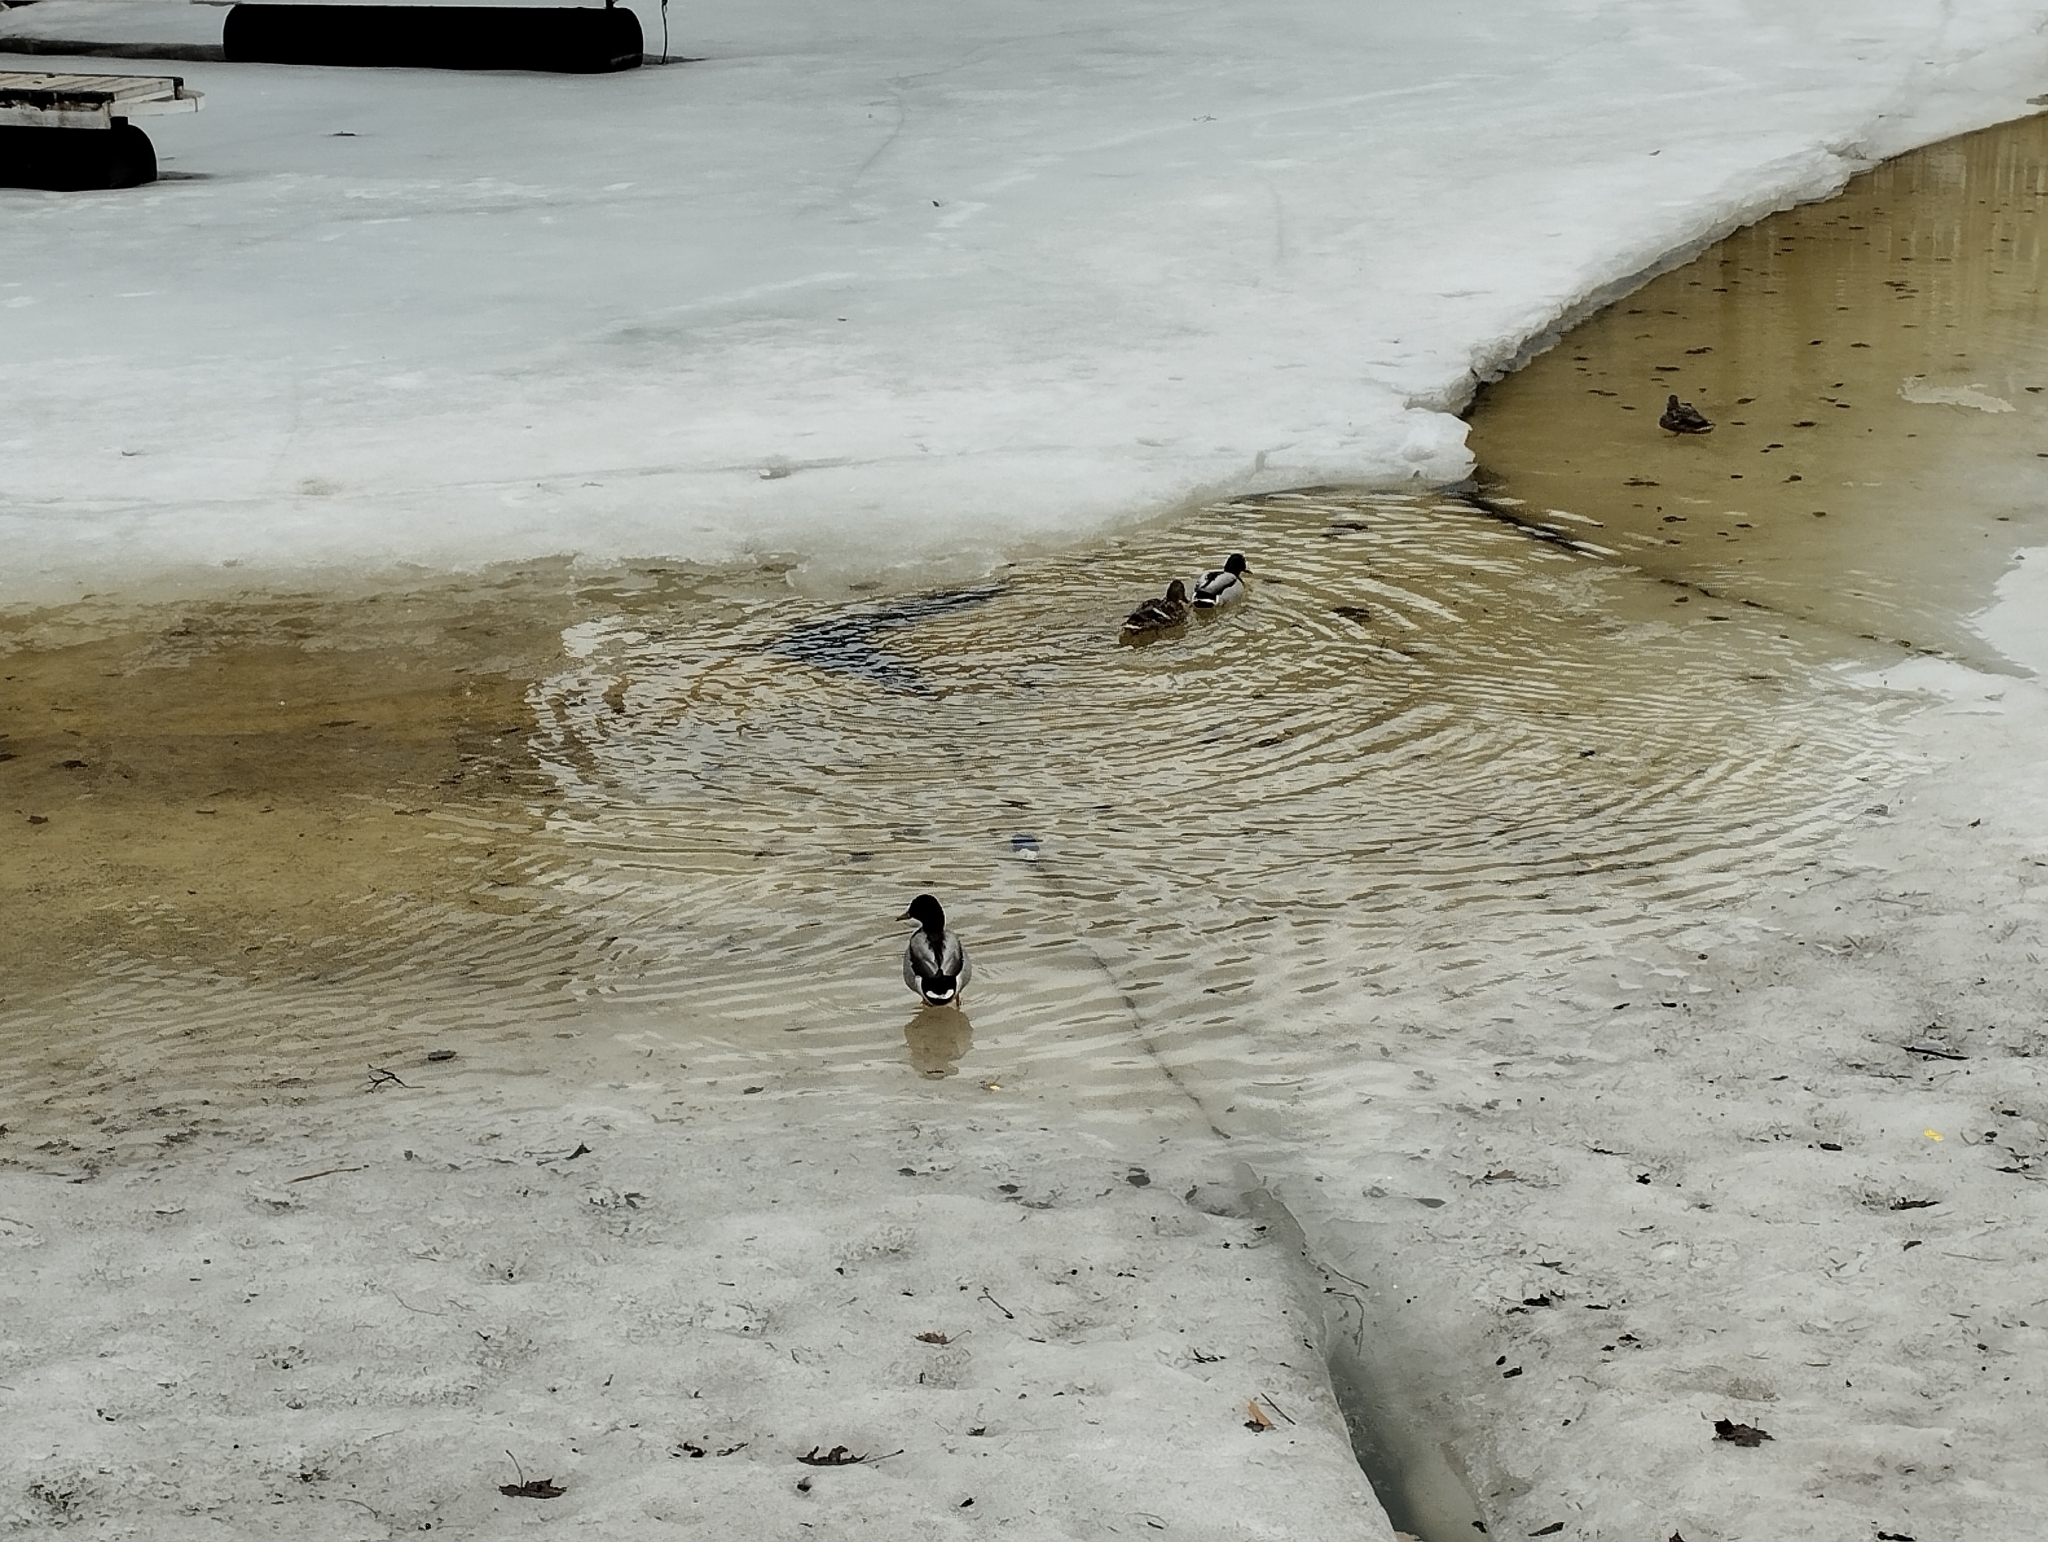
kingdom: Animalia
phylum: Chordata
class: Aves
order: Anseriformes
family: Anatidae
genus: Anas
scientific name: Anas platyrhynchos
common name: Mallard
